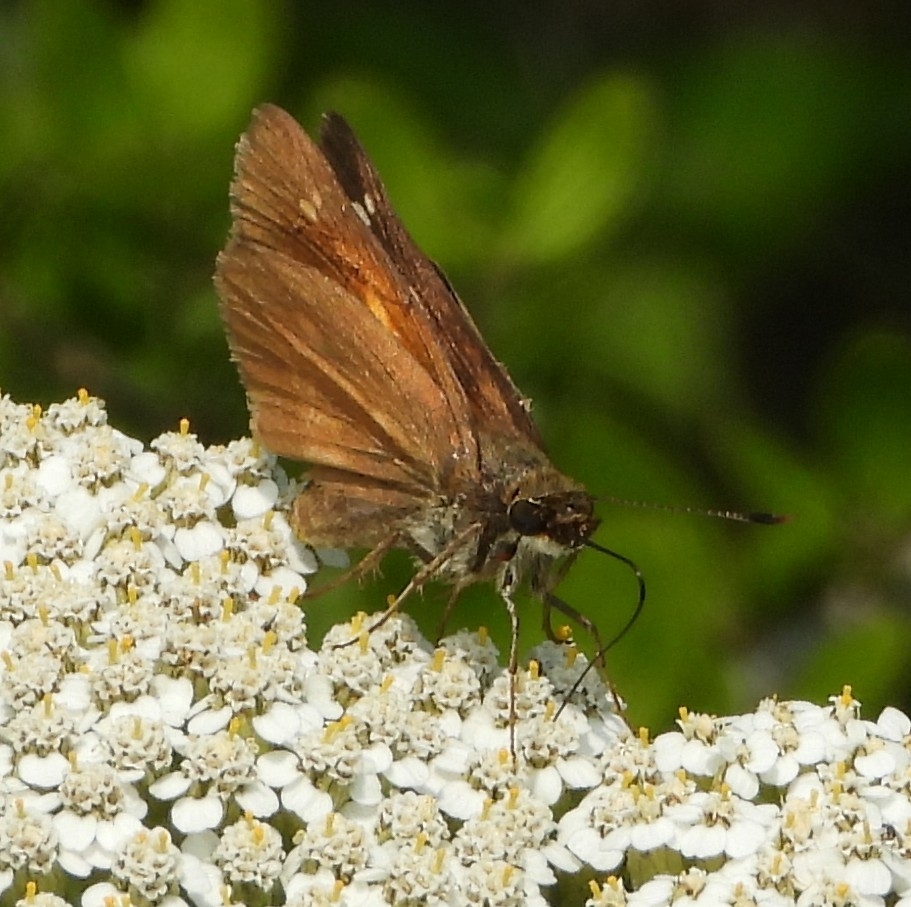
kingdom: Animalia
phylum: Arthropoda
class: Insecta
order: Lepidoptera
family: Hesperiidae
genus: Poanes
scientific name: Poanes viator
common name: Broad-winged skipper
